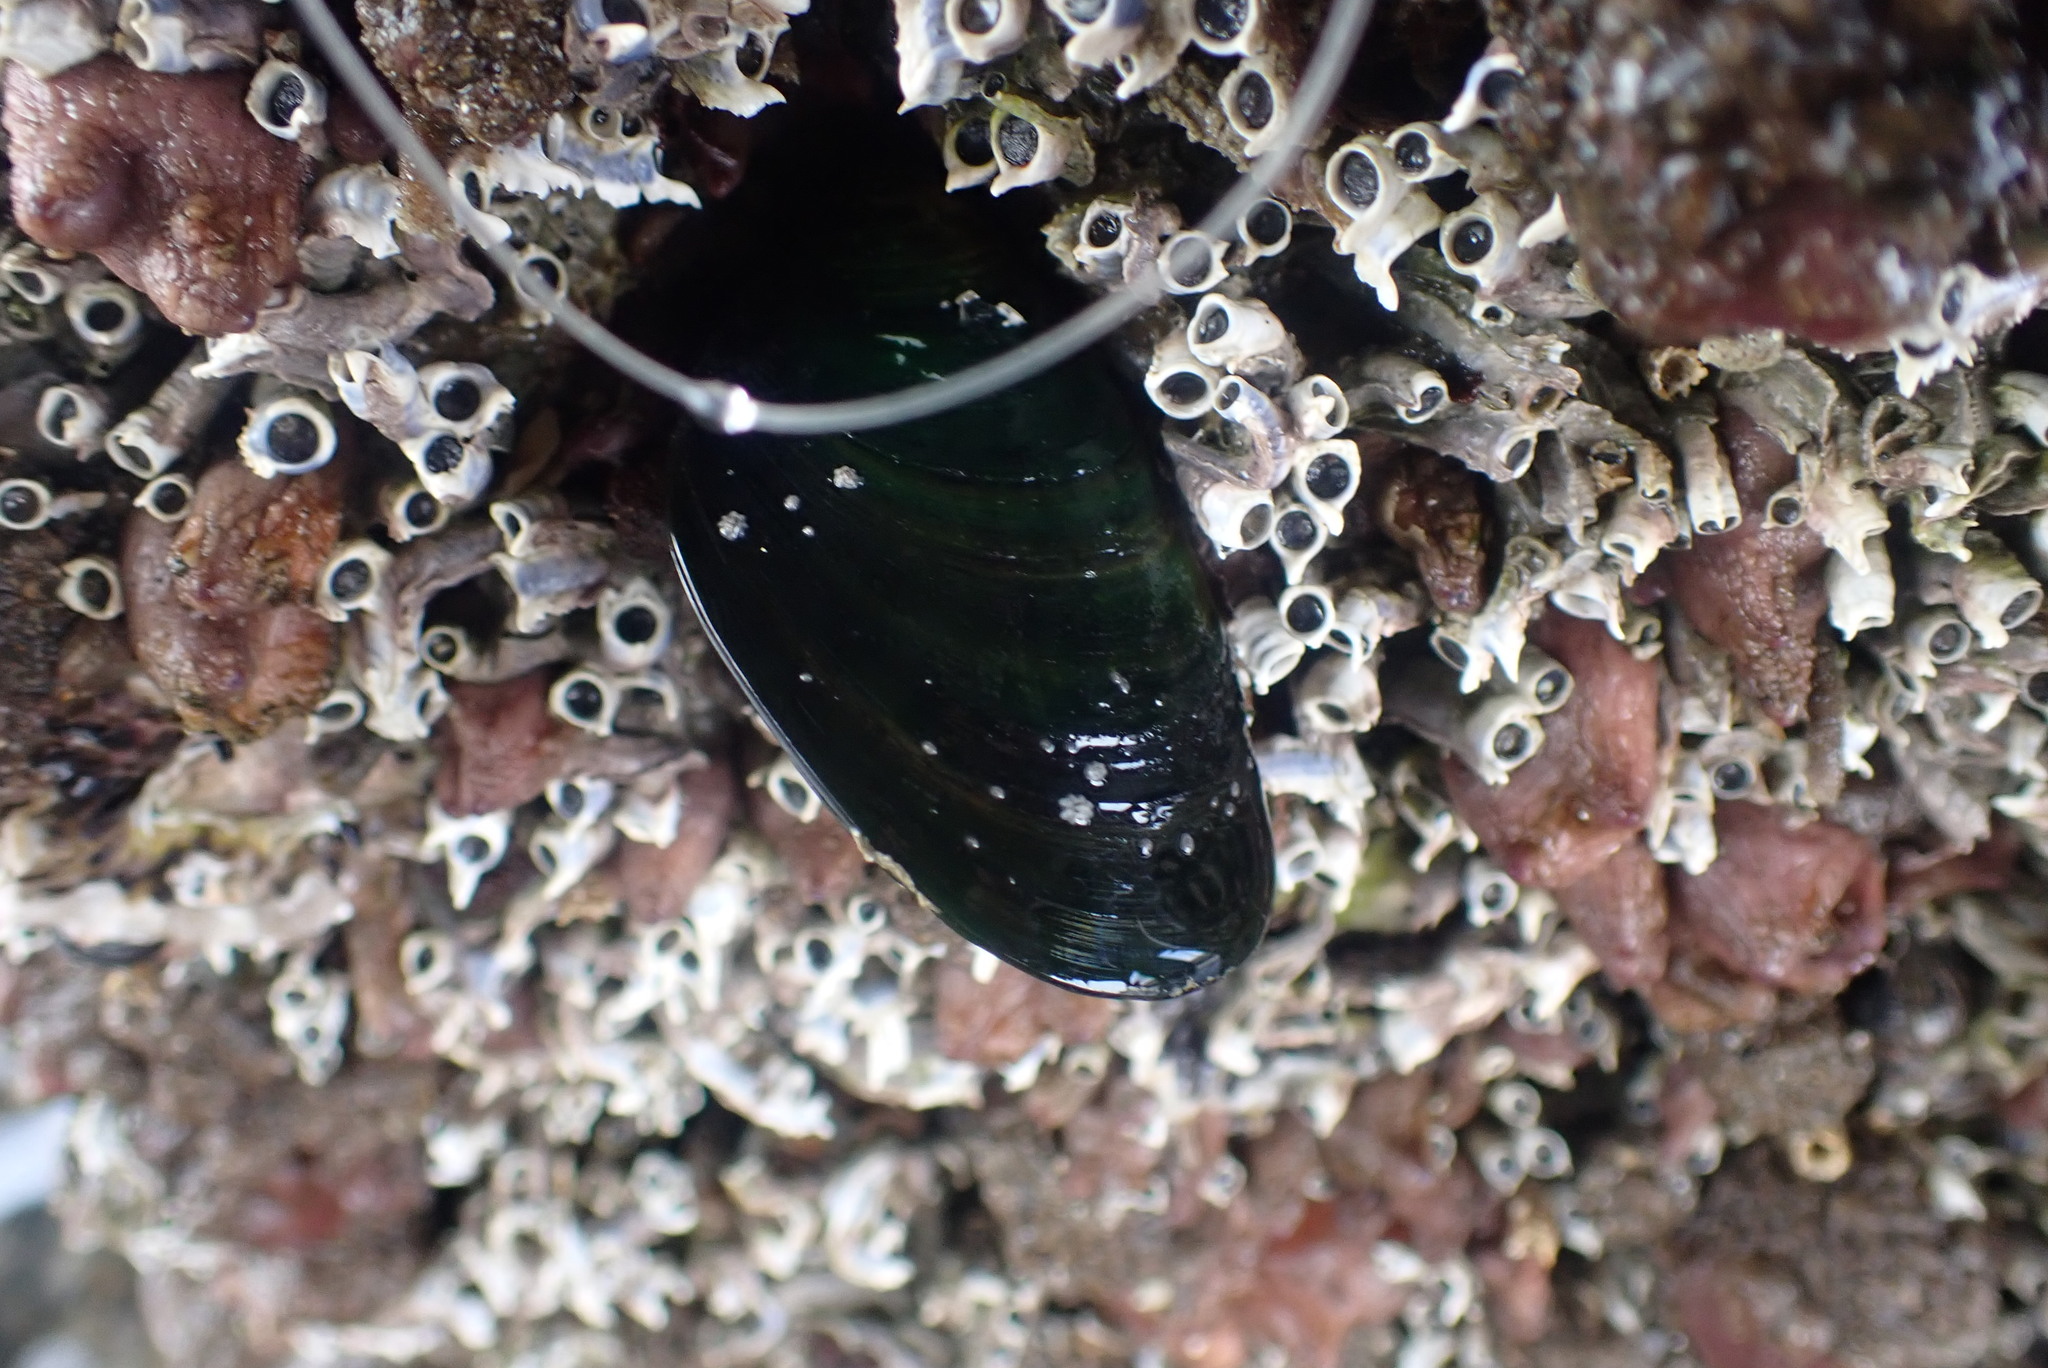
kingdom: Animalia
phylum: Mollusca
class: Bivalvia
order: Mytilida
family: Mytilidae
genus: Perna
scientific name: Perna canaliculus
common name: New zealand greenshelltm
